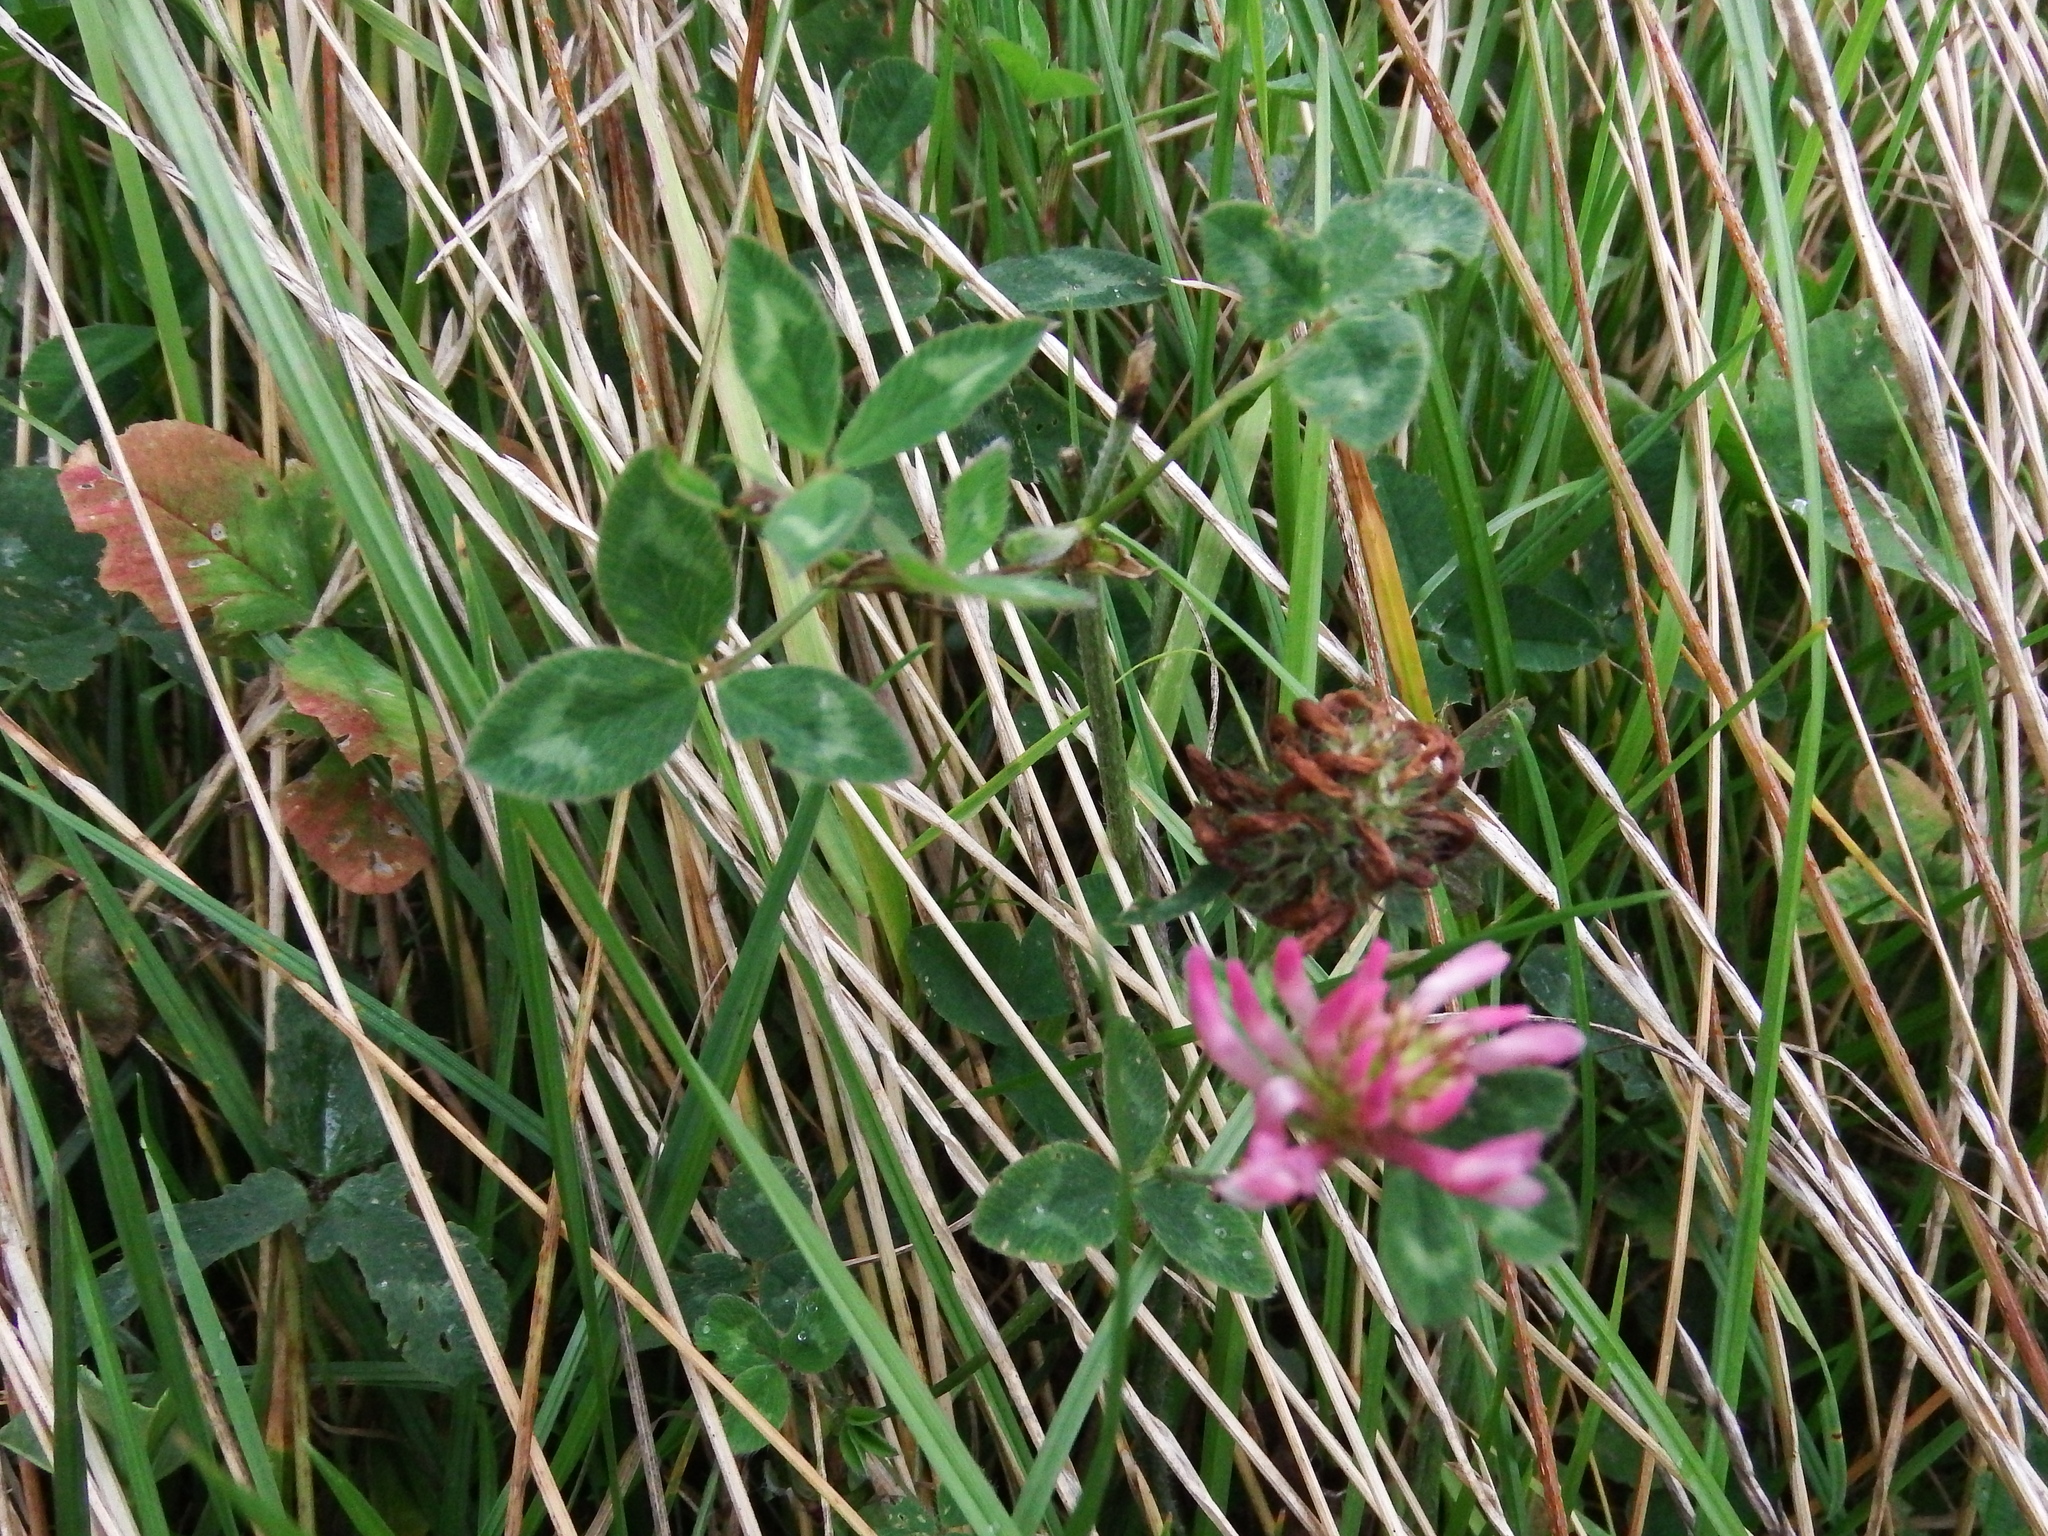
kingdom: Plantae
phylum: Tracheophyta
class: Magnoliopsida
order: Fabales
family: Fabaceae
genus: Trifolium
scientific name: Trifolium pratense
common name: Red clover
